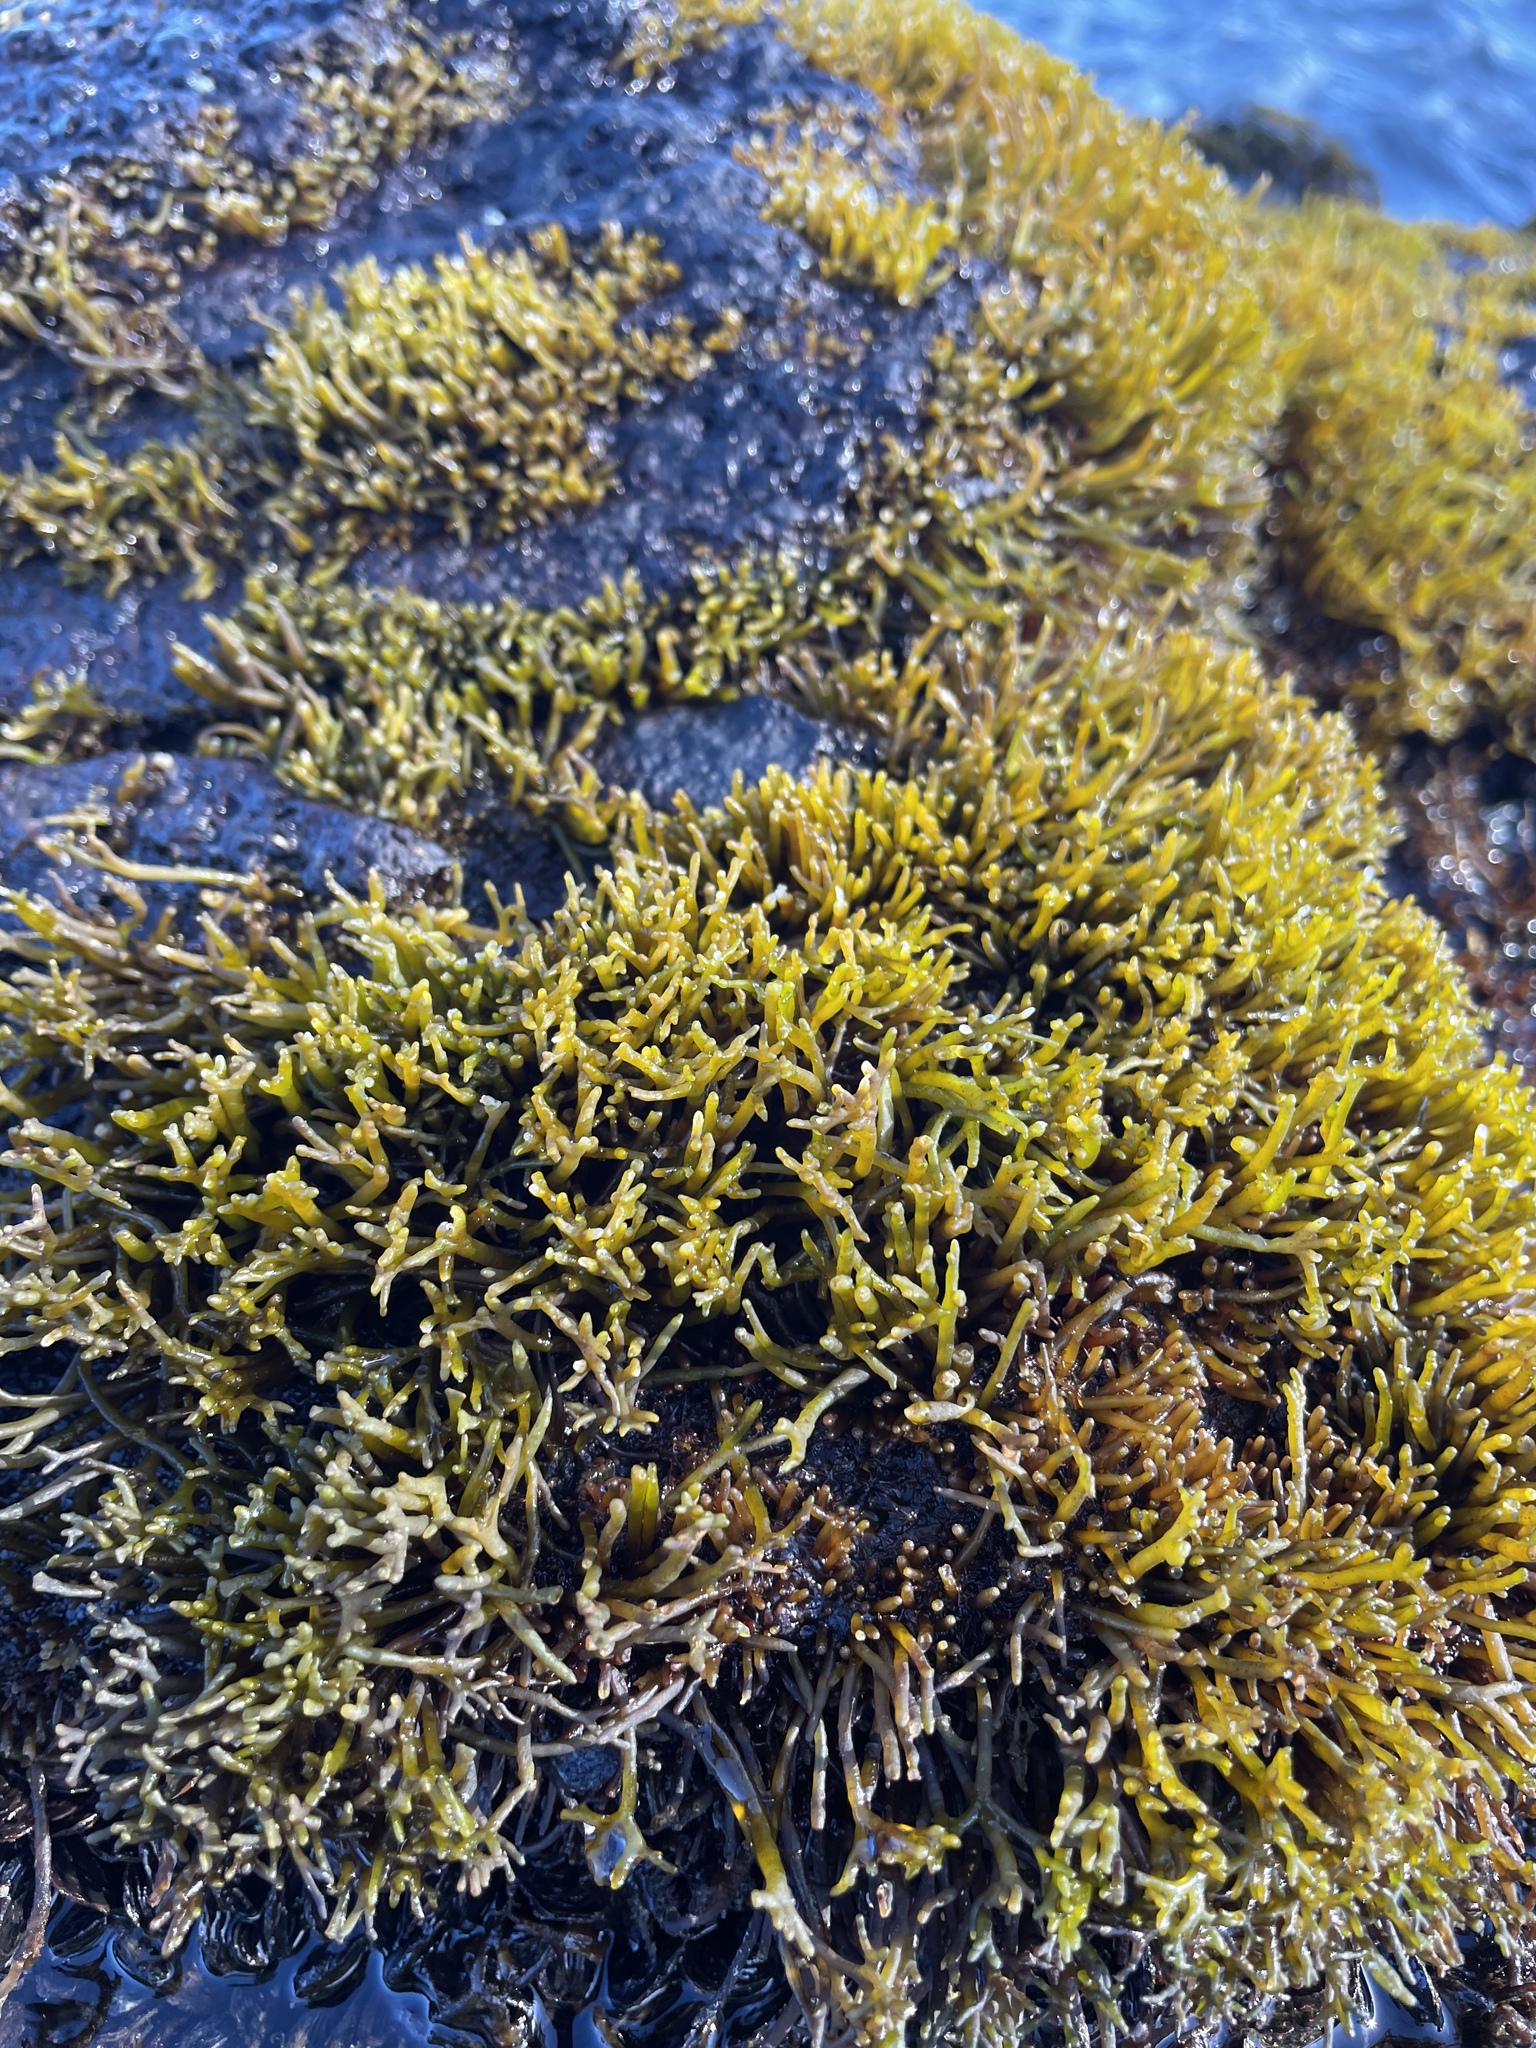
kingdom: Plantae
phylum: Rhodophyta
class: Florideophyceae
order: Gigartinales
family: Phyllophoraceae
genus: Gymnogongrus
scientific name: Gymnogongrus durvillei
